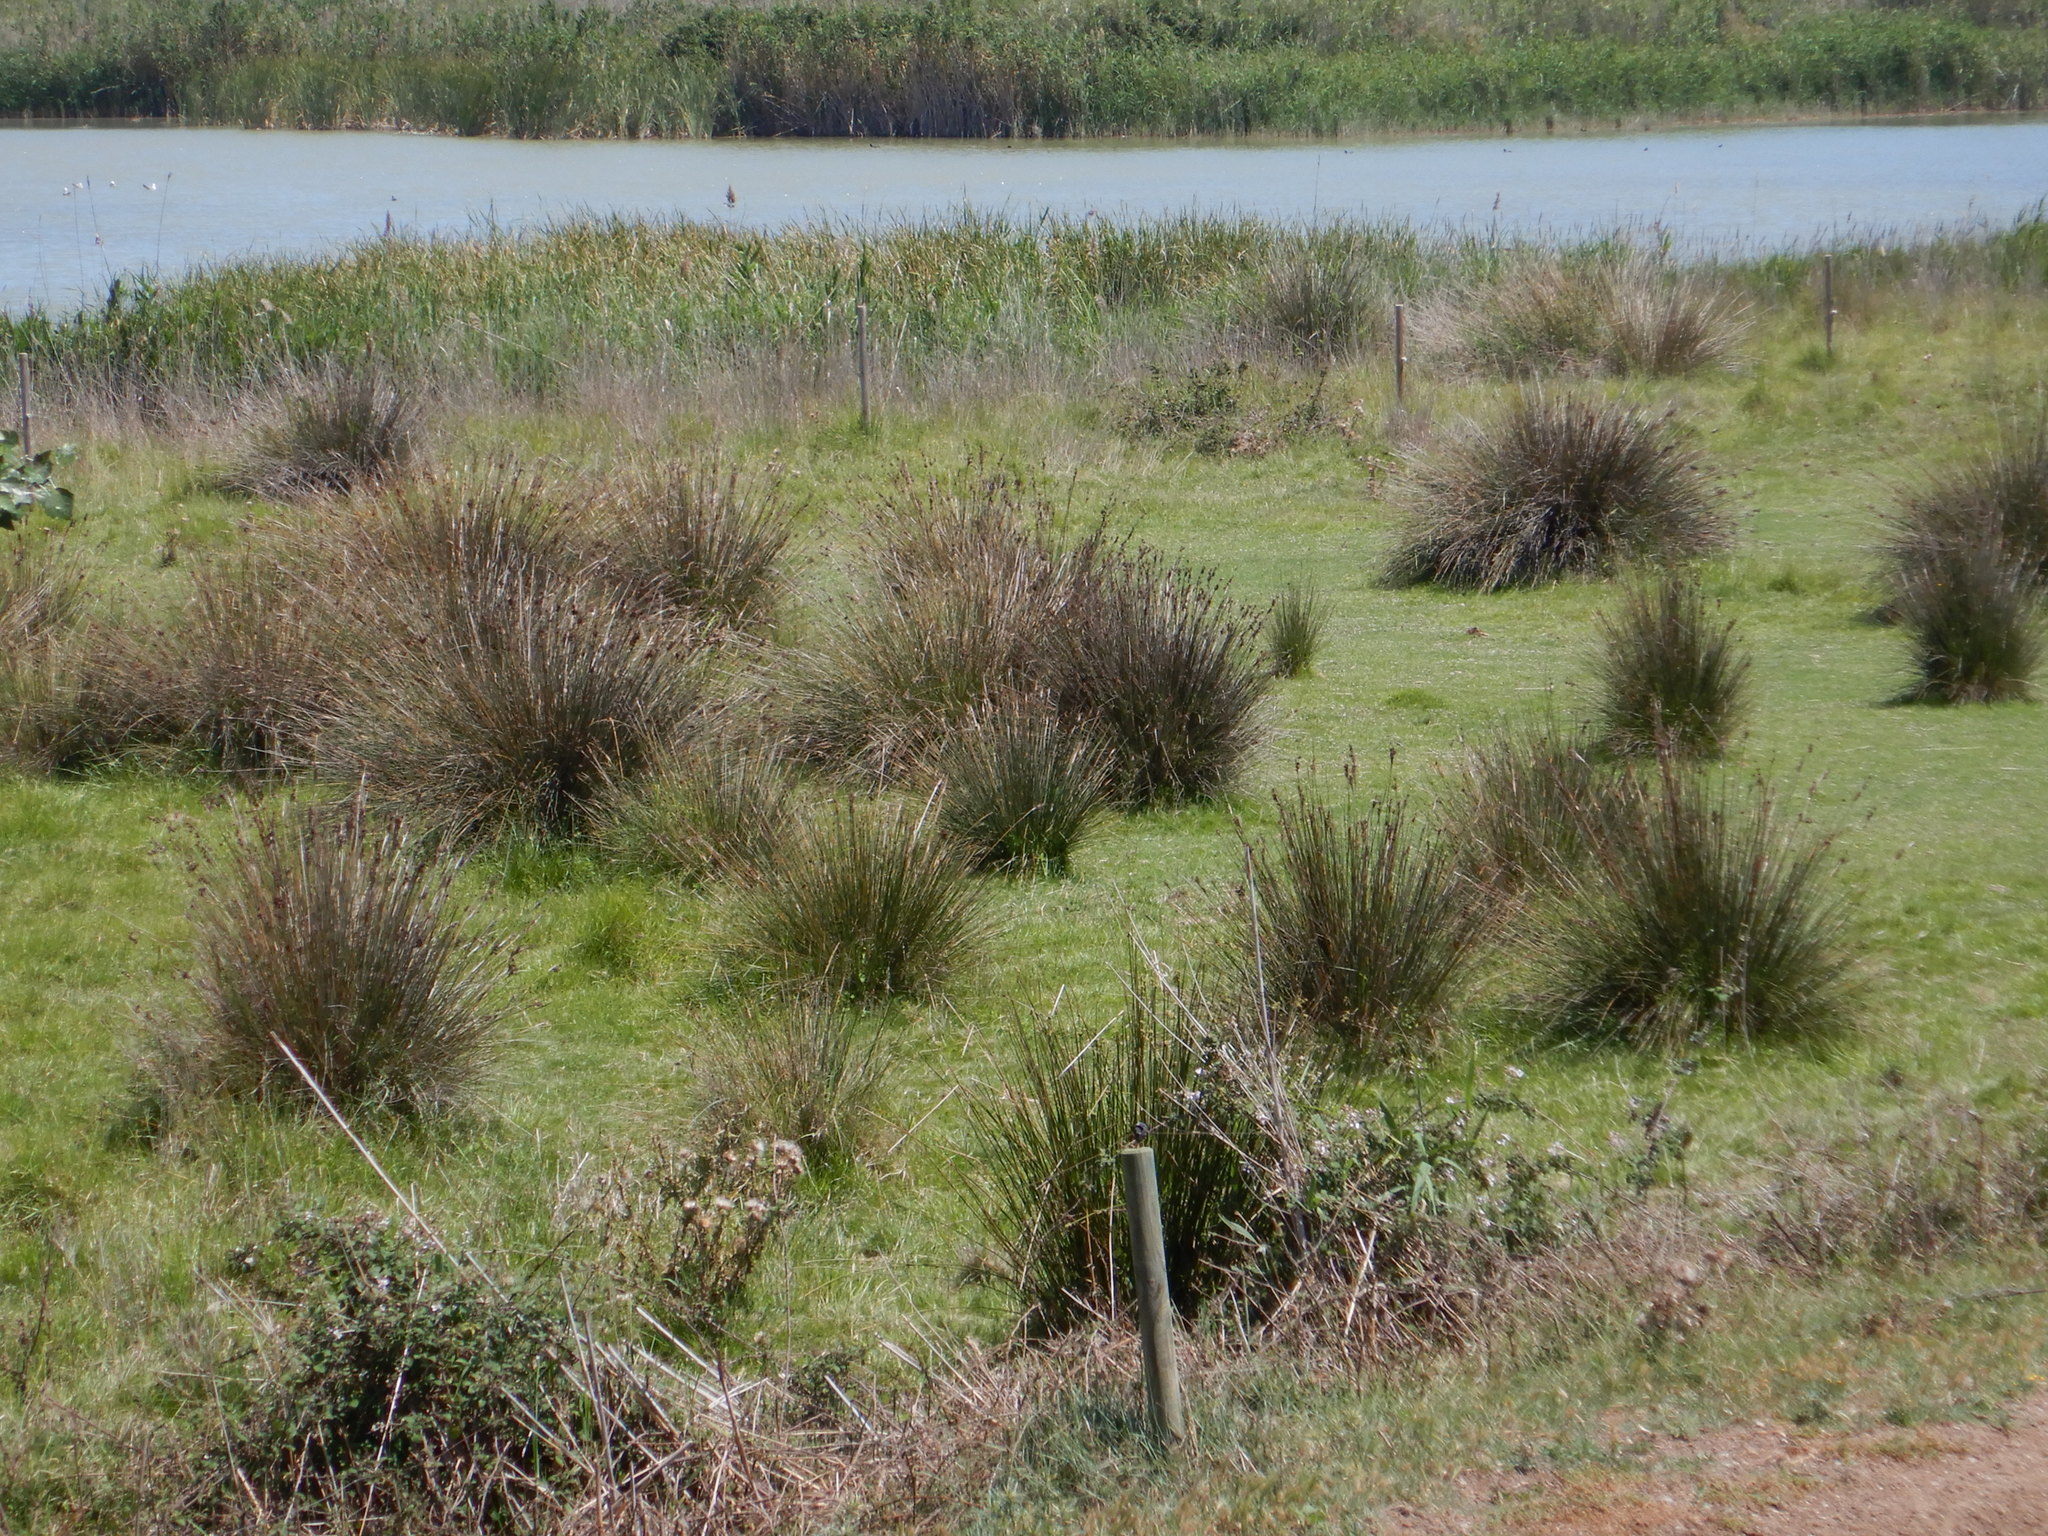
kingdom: Plantae
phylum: Tracheophyta
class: Liliopsida
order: Poales
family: Juncaceae
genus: Juncus
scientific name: Juncus acutus
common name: Sharp rush
